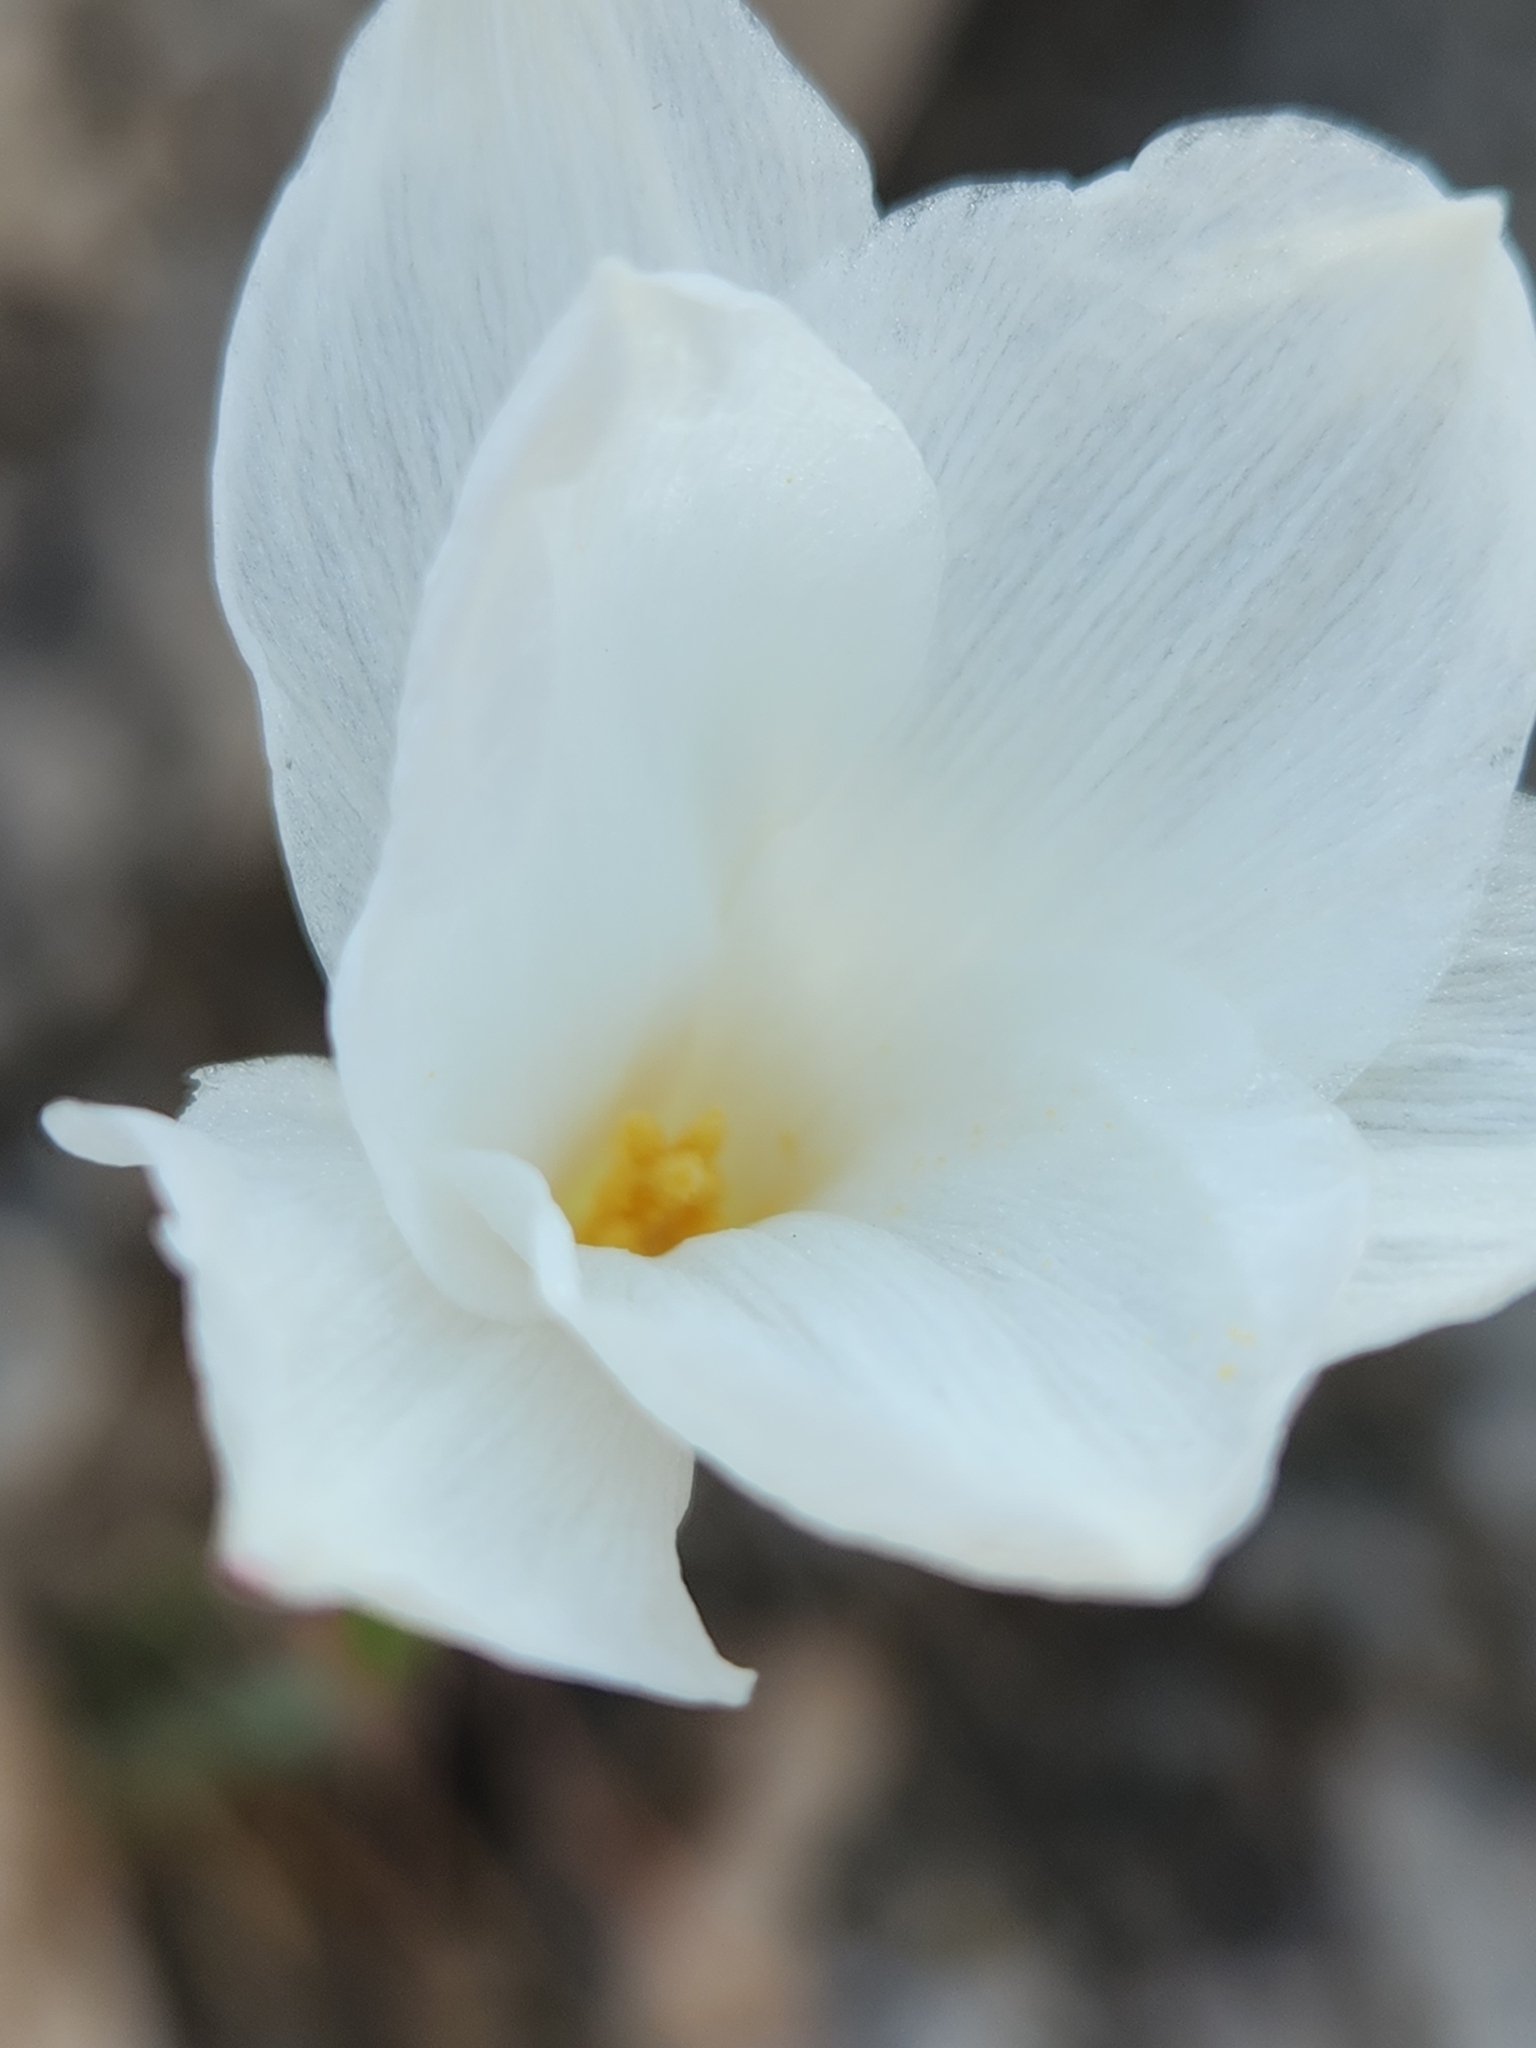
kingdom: Plantae
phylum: Tracheophyta
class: Liliopsida
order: Asparagales
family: Amaryllidaceae
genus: Zephyranthes
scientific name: Zephyranthes drummondii
